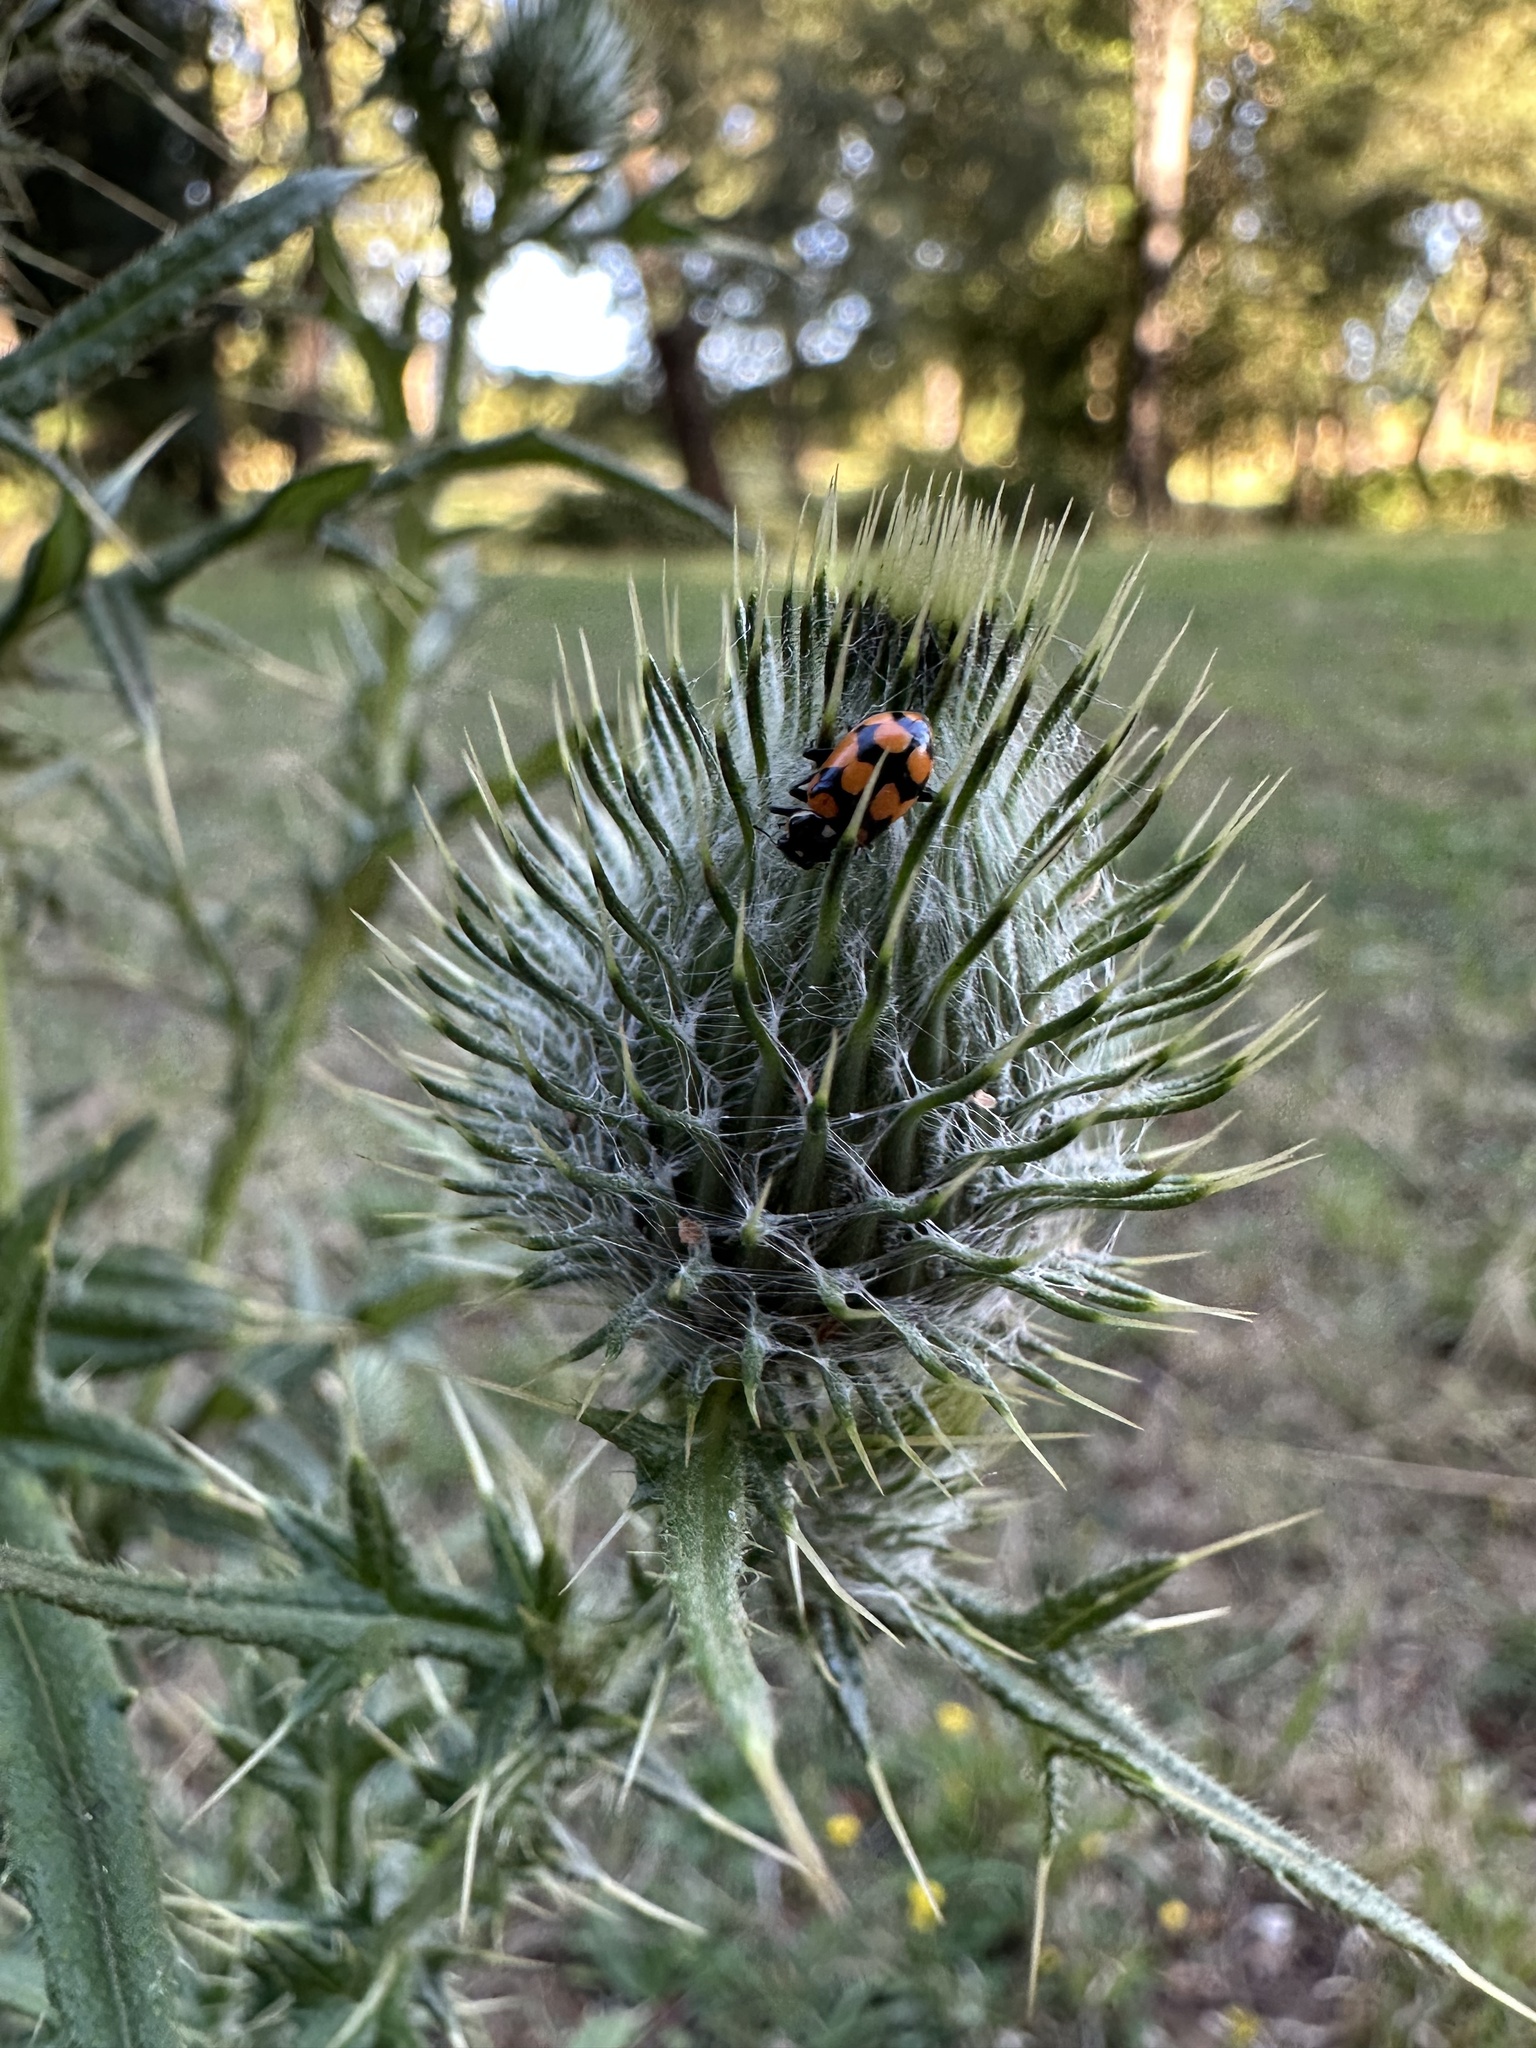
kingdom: Animalia
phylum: Arthropoda
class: Insecta
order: Coleoptera
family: Coccinellidae
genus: Eriopis
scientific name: Eriopis chilensis
